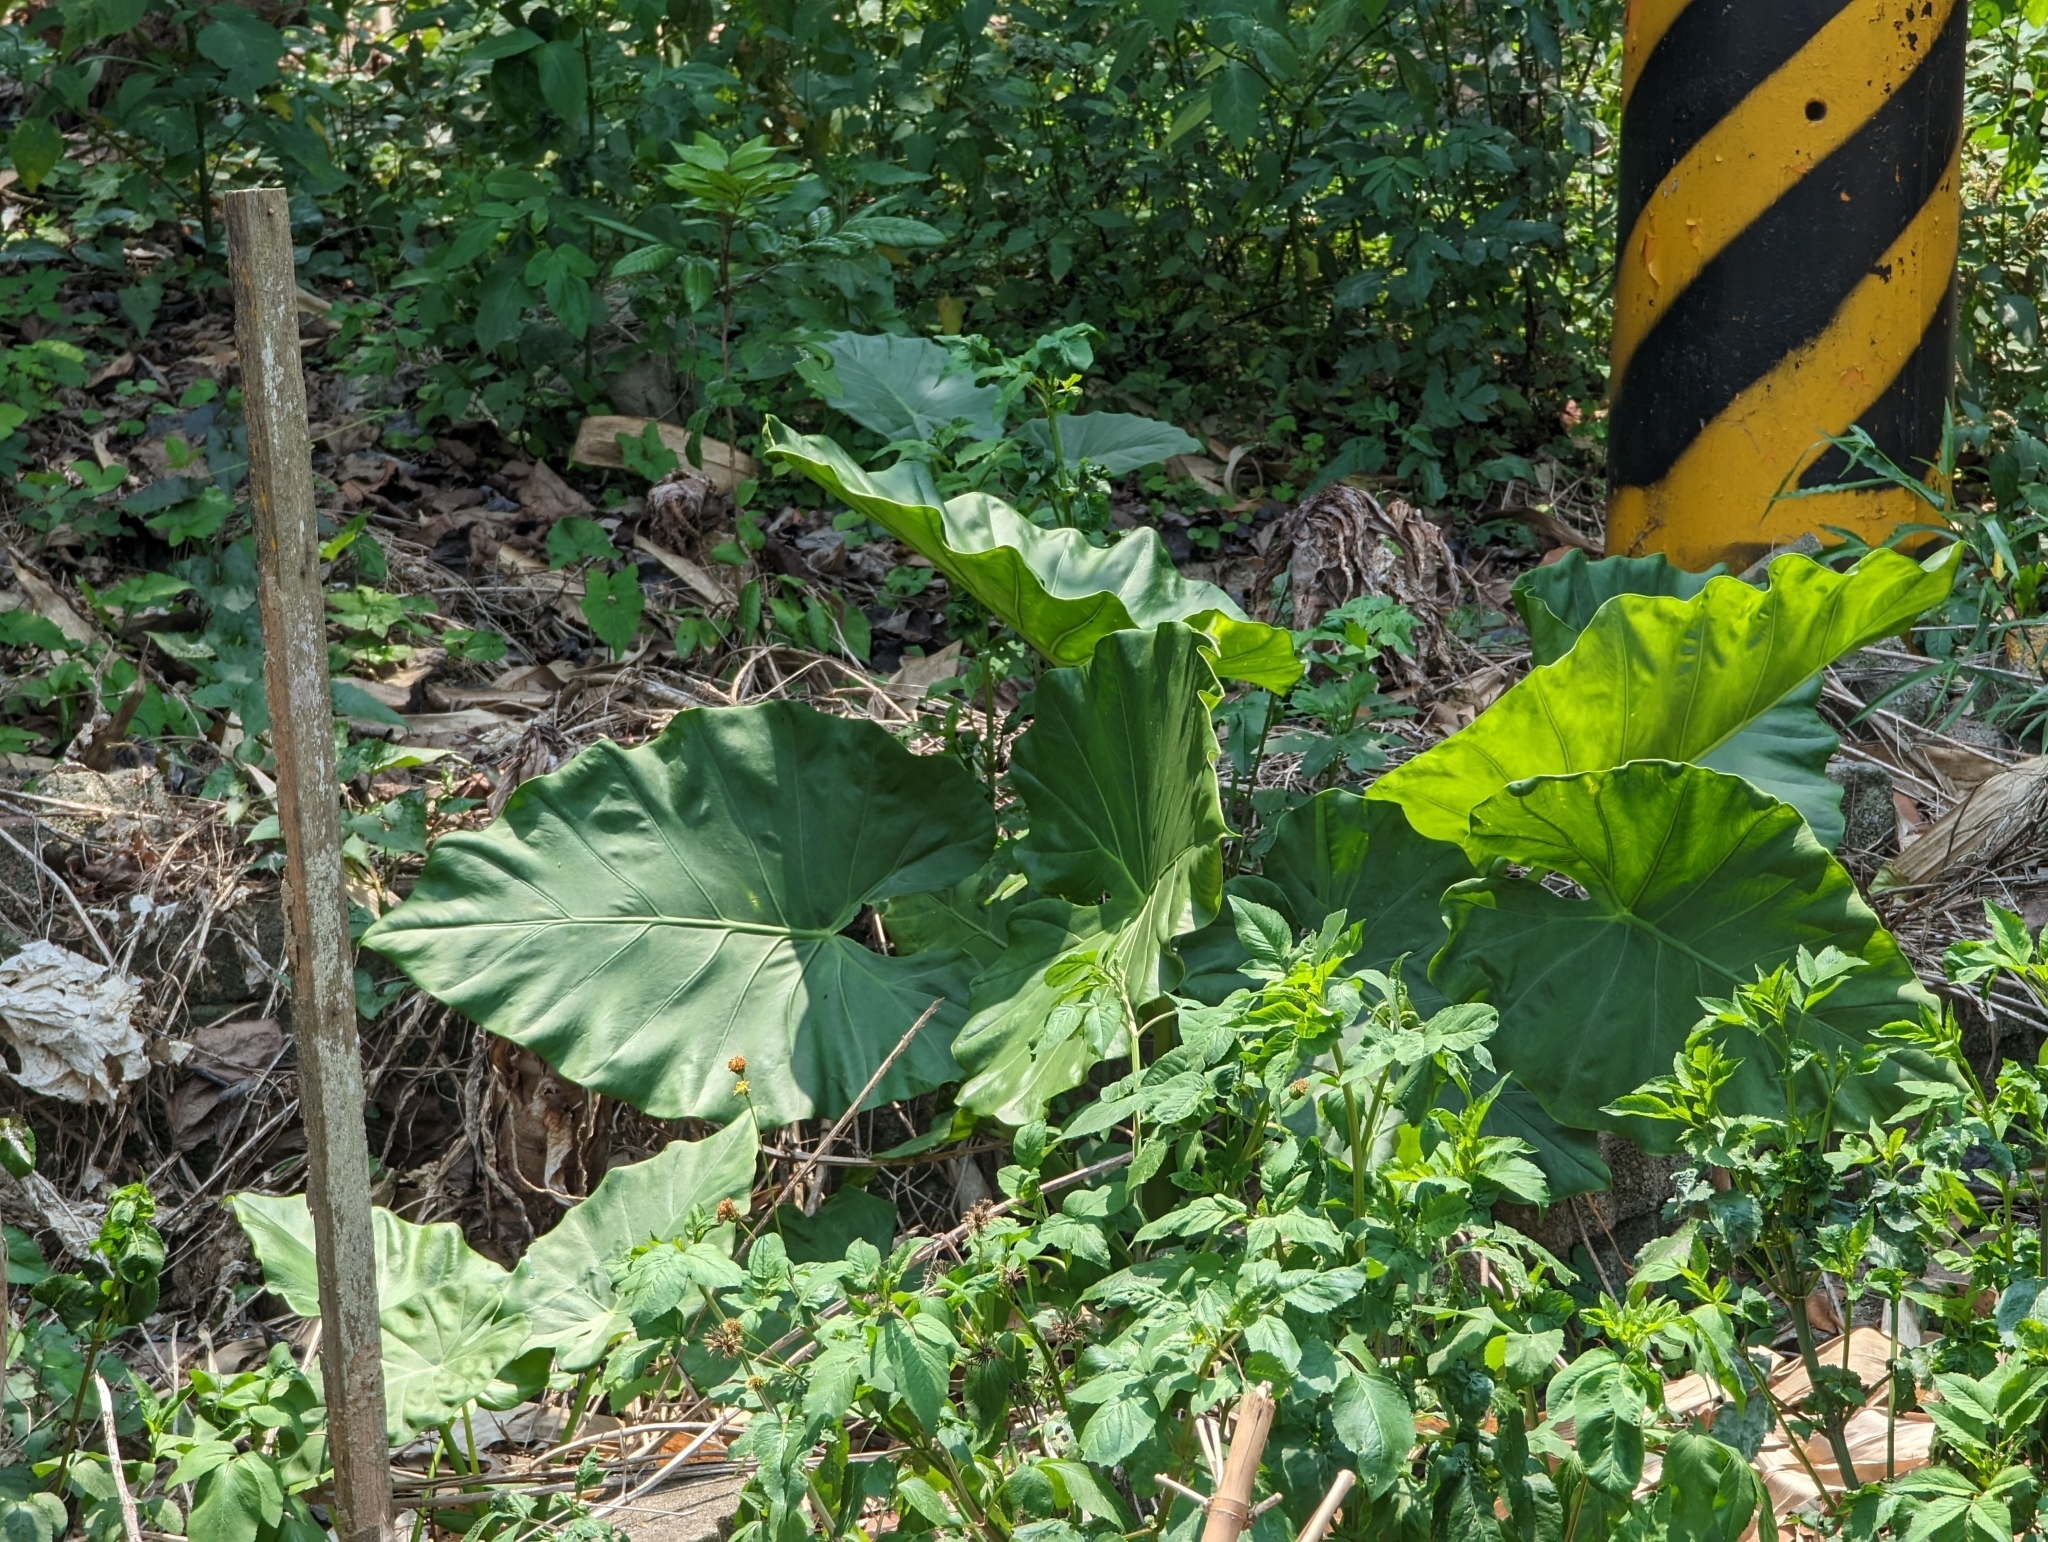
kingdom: Plantae
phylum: Tracheophyta
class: Liliopsida
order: Alismatales
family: Araceae
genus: Alocasia
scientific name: Alocasia odora
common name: Asian taro
